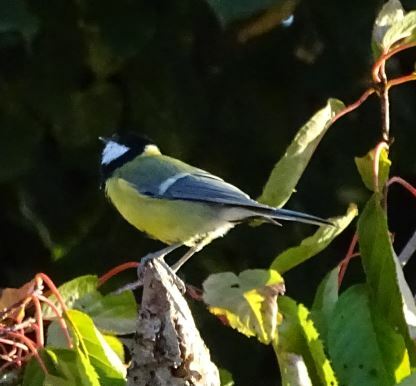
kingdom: Animalia
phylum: Chordata
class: Aves
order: Passeriformes
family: Paridae
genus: Parus
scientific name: Parus major
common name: Great tit
